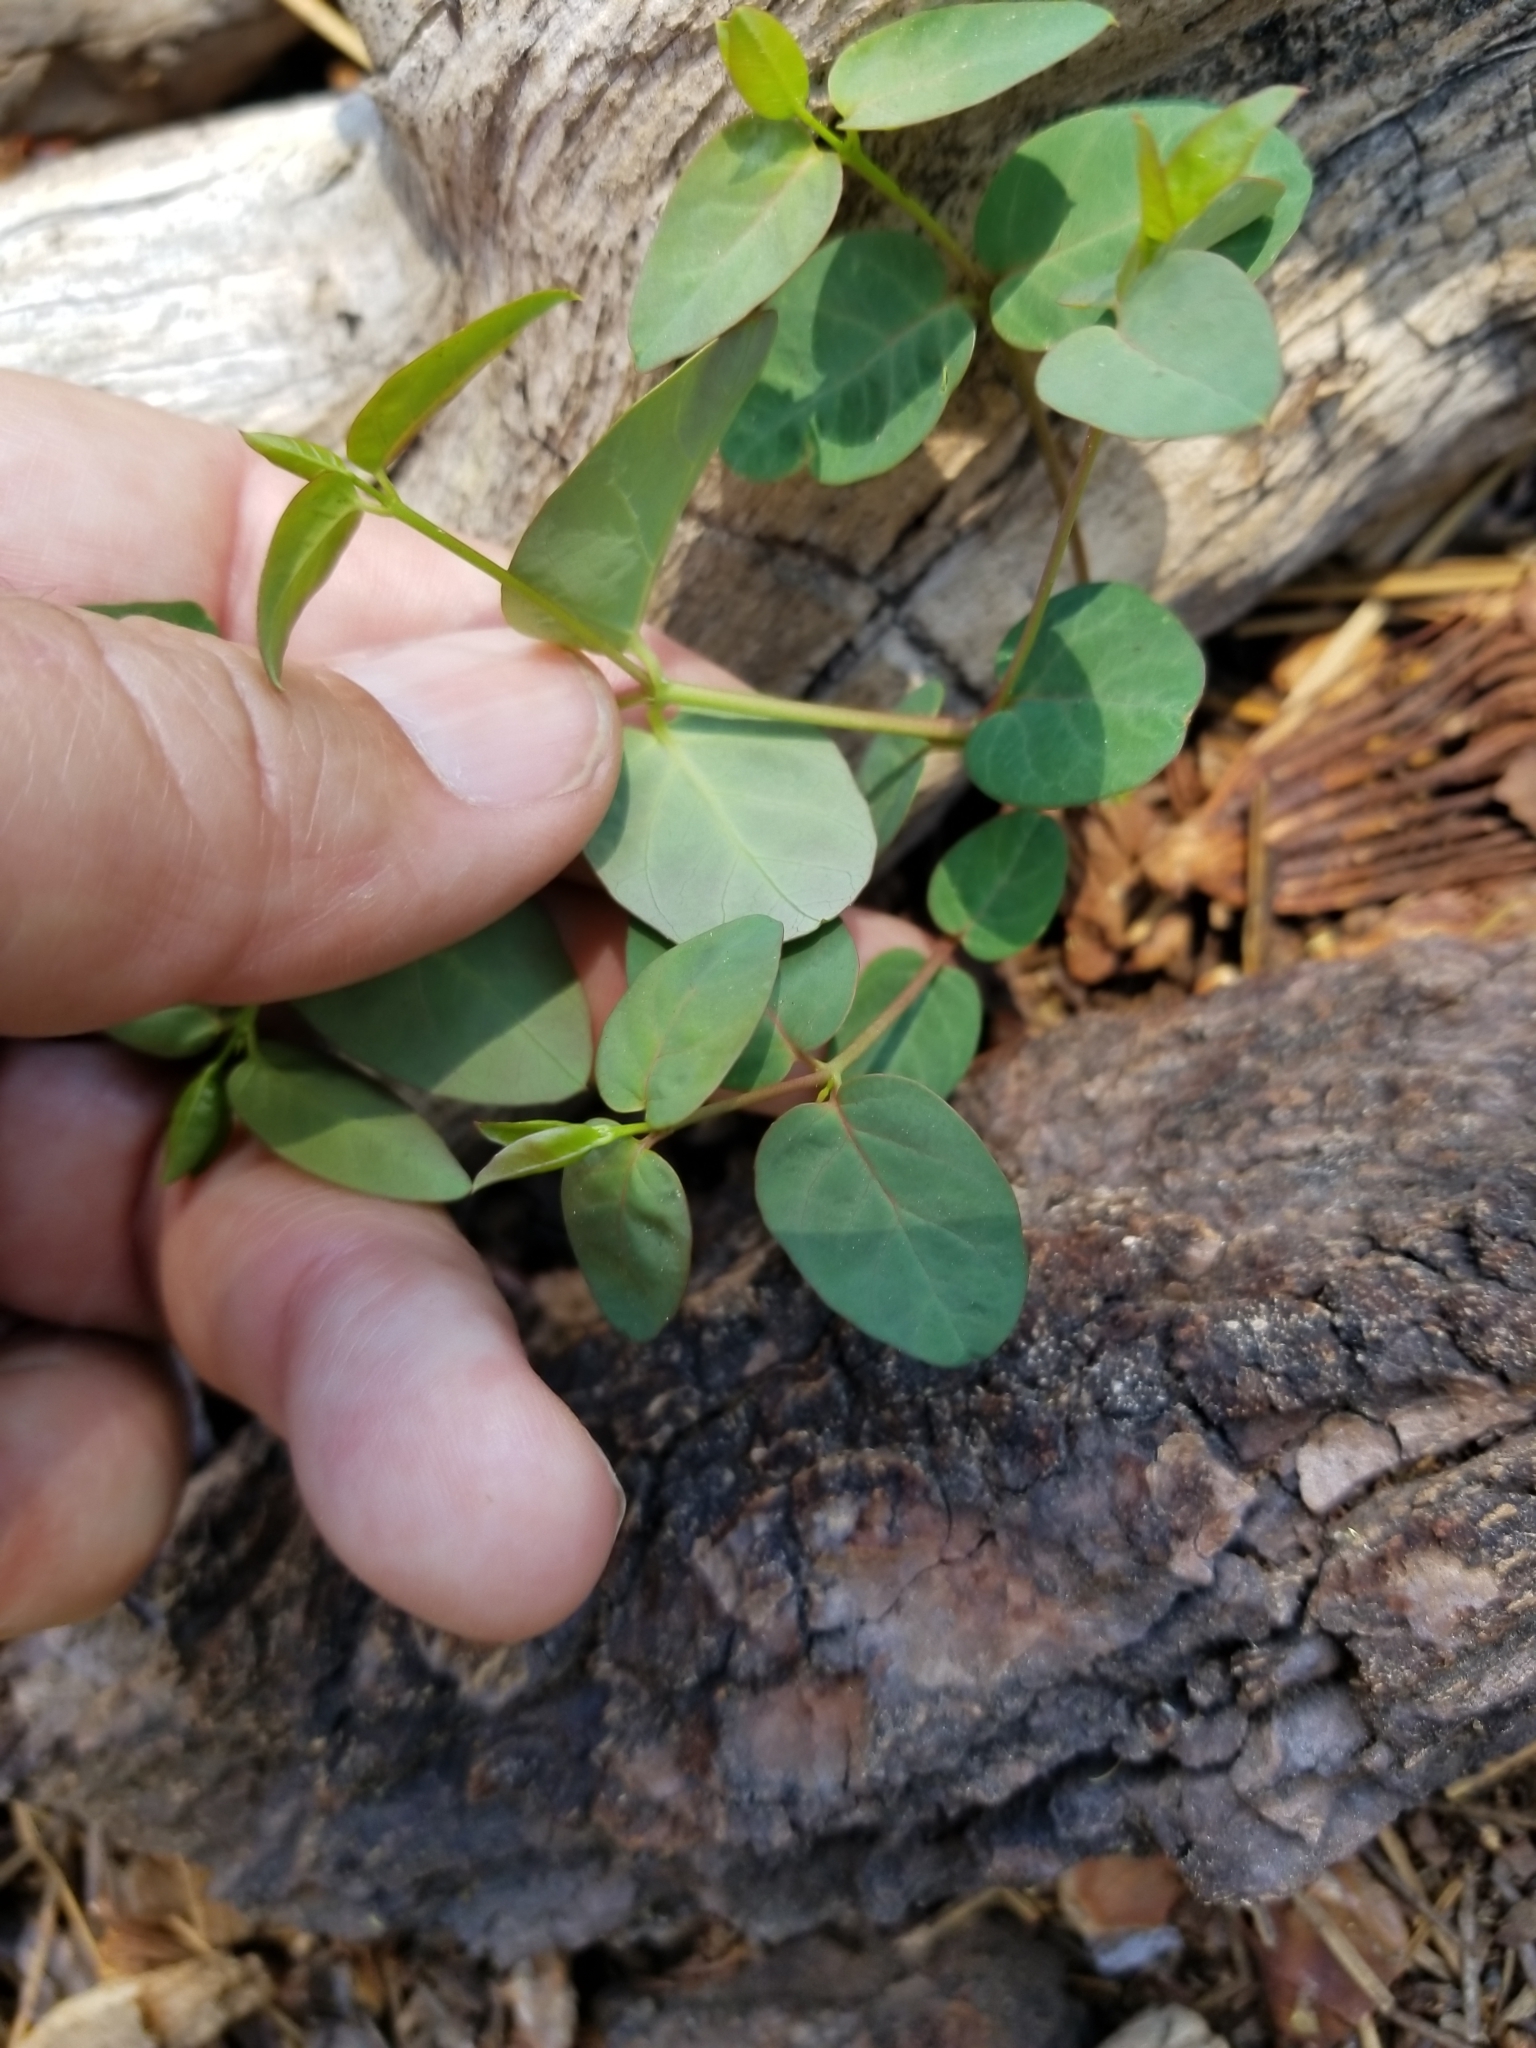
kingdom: Plantae
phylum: Tracheophyta
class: Magnoliopsida
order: Gentianales
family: Apocynaceae
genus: Apocynum
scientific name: Apocynum androsaemifolium
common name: Spreading dogbane
